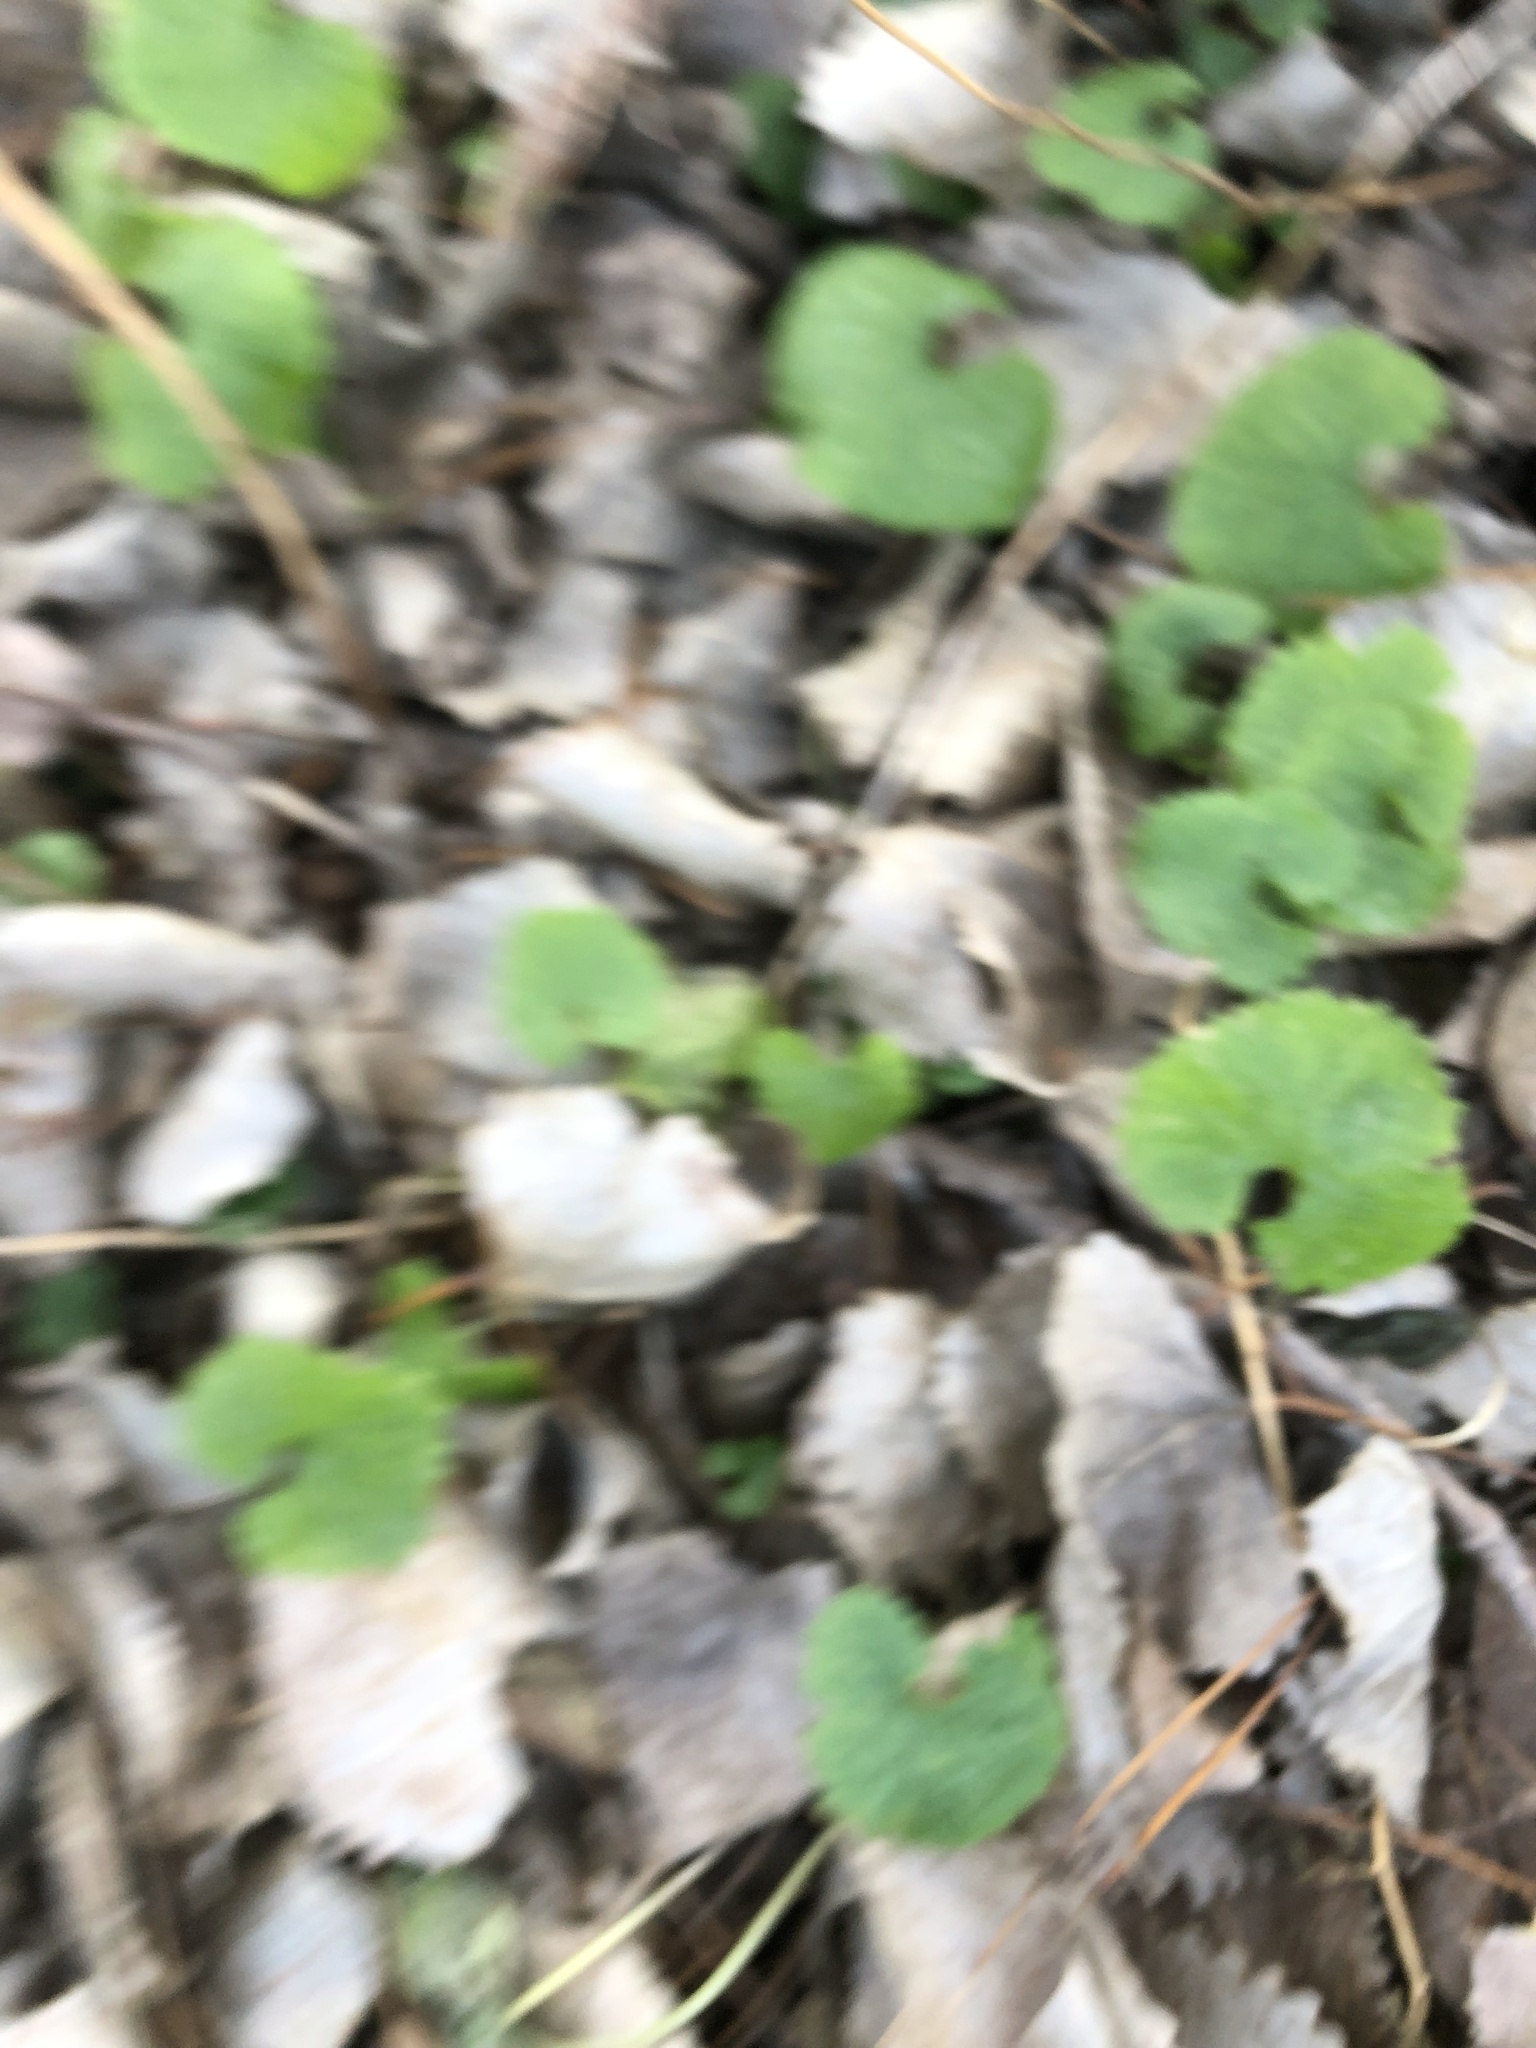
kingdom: Plantae
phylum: Tracheophyta
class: Magnoliopsida
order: Brassicales
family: Brassicaceae
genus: Alliaria
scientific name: Alliaria petiolata
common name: Garlic mustard
